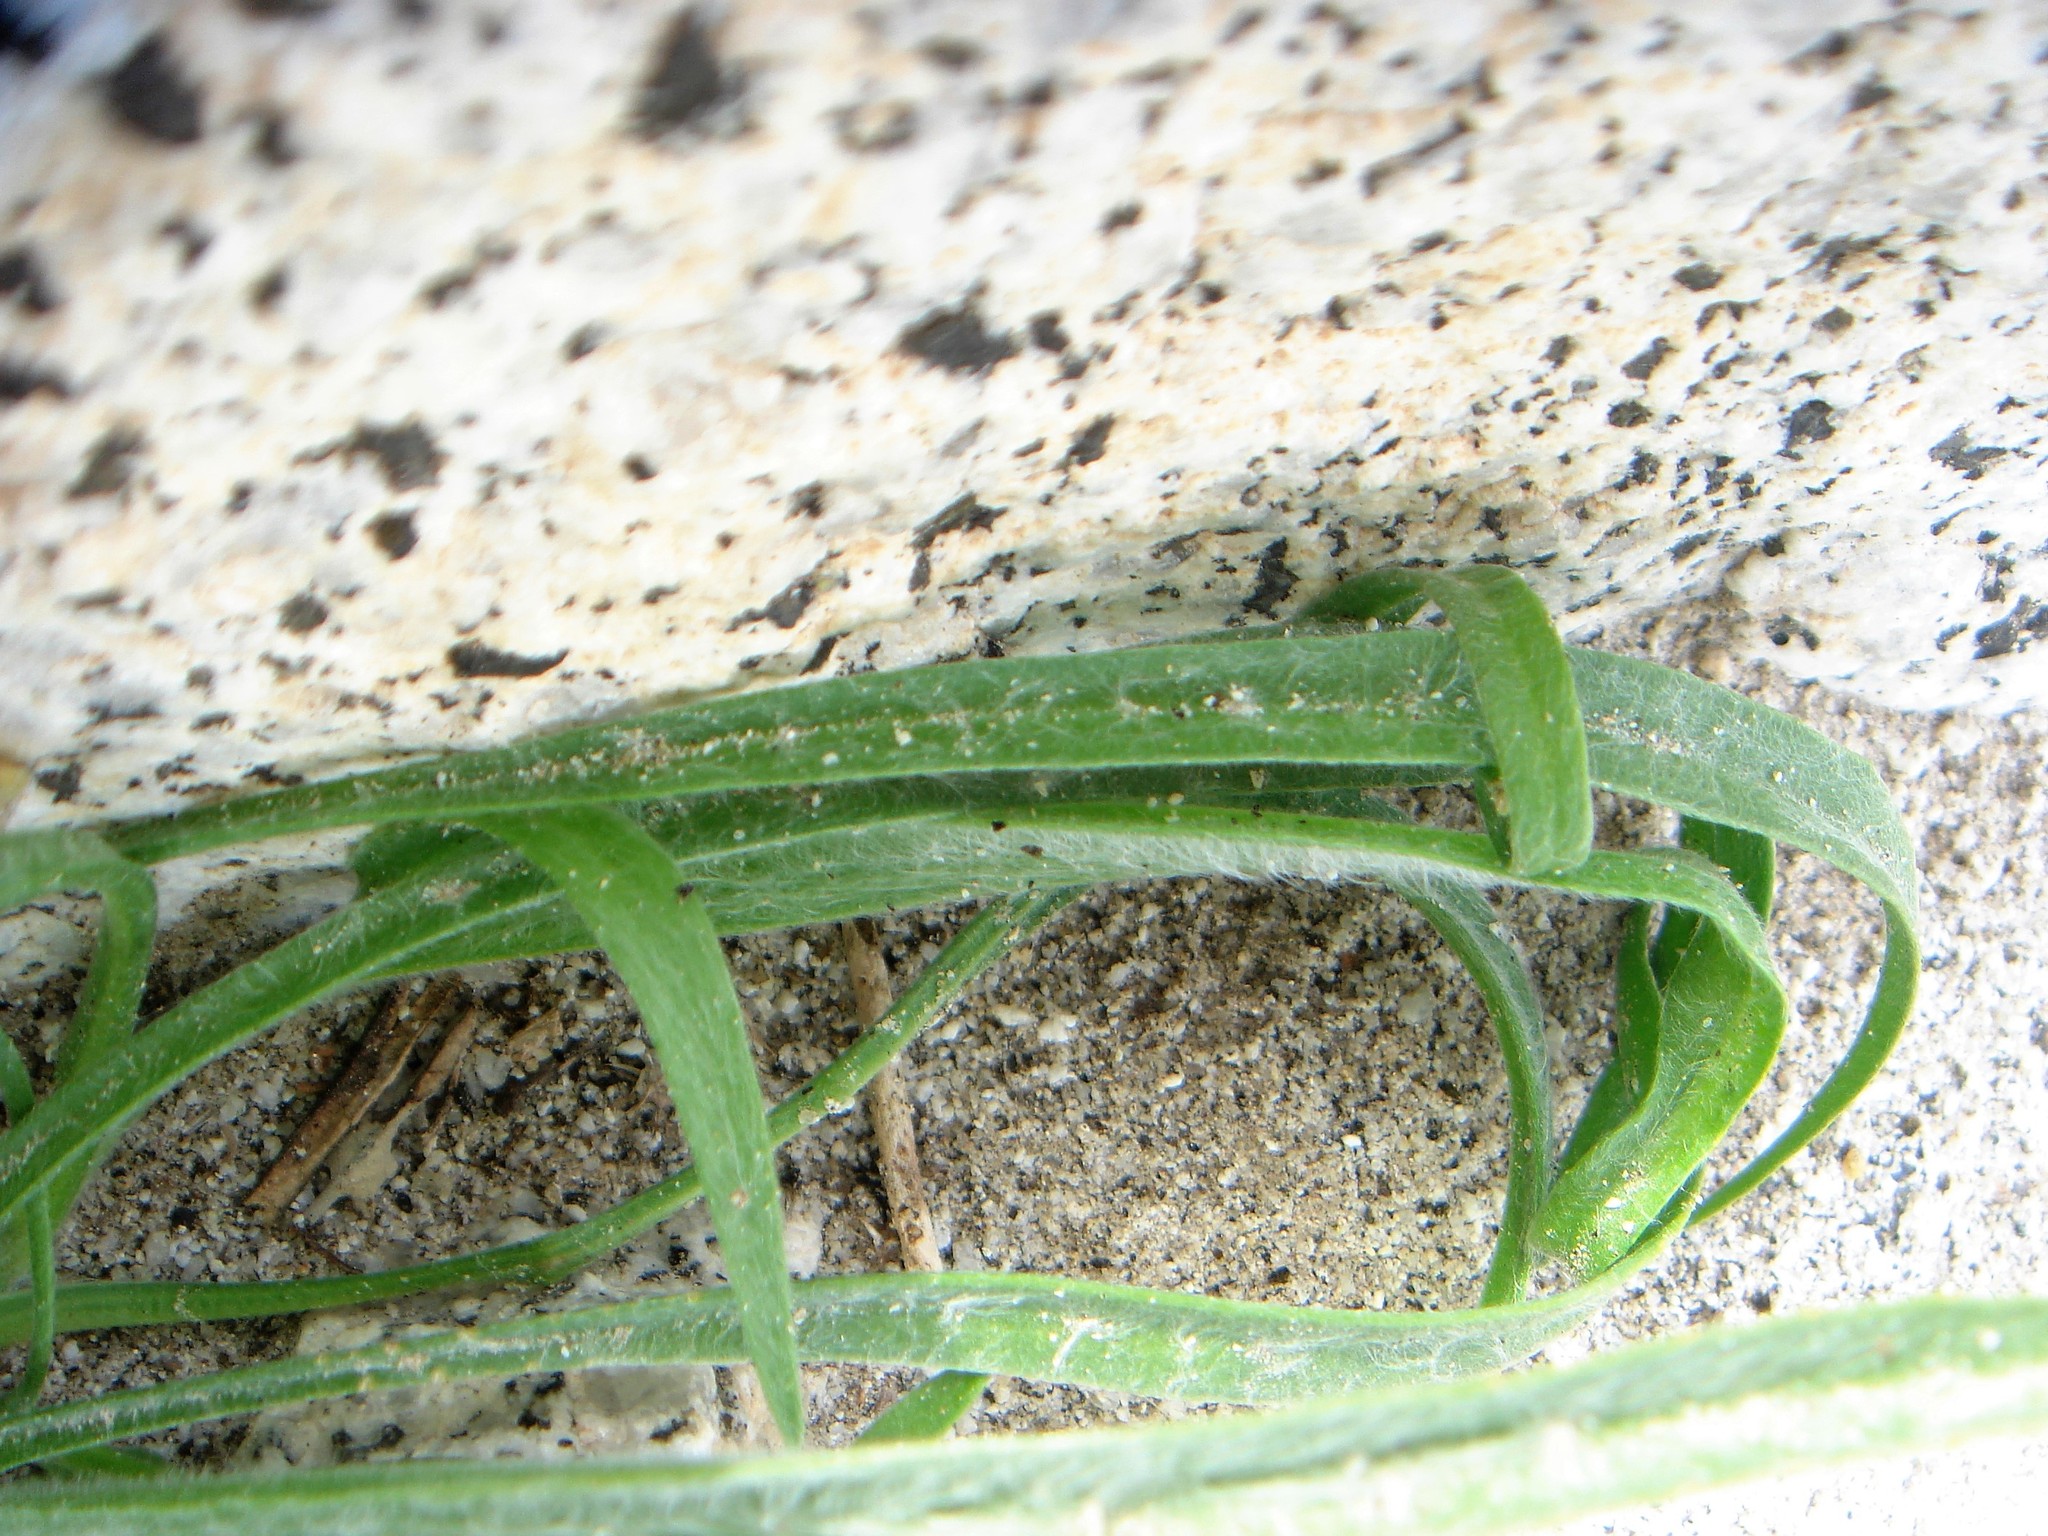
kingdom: Plantae
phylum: Tracheophyta
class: Magnoliopsida
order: Lamiales
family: Plantaginaceae
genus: Plantago
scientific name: Plantago ovata
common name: Blond plantain
